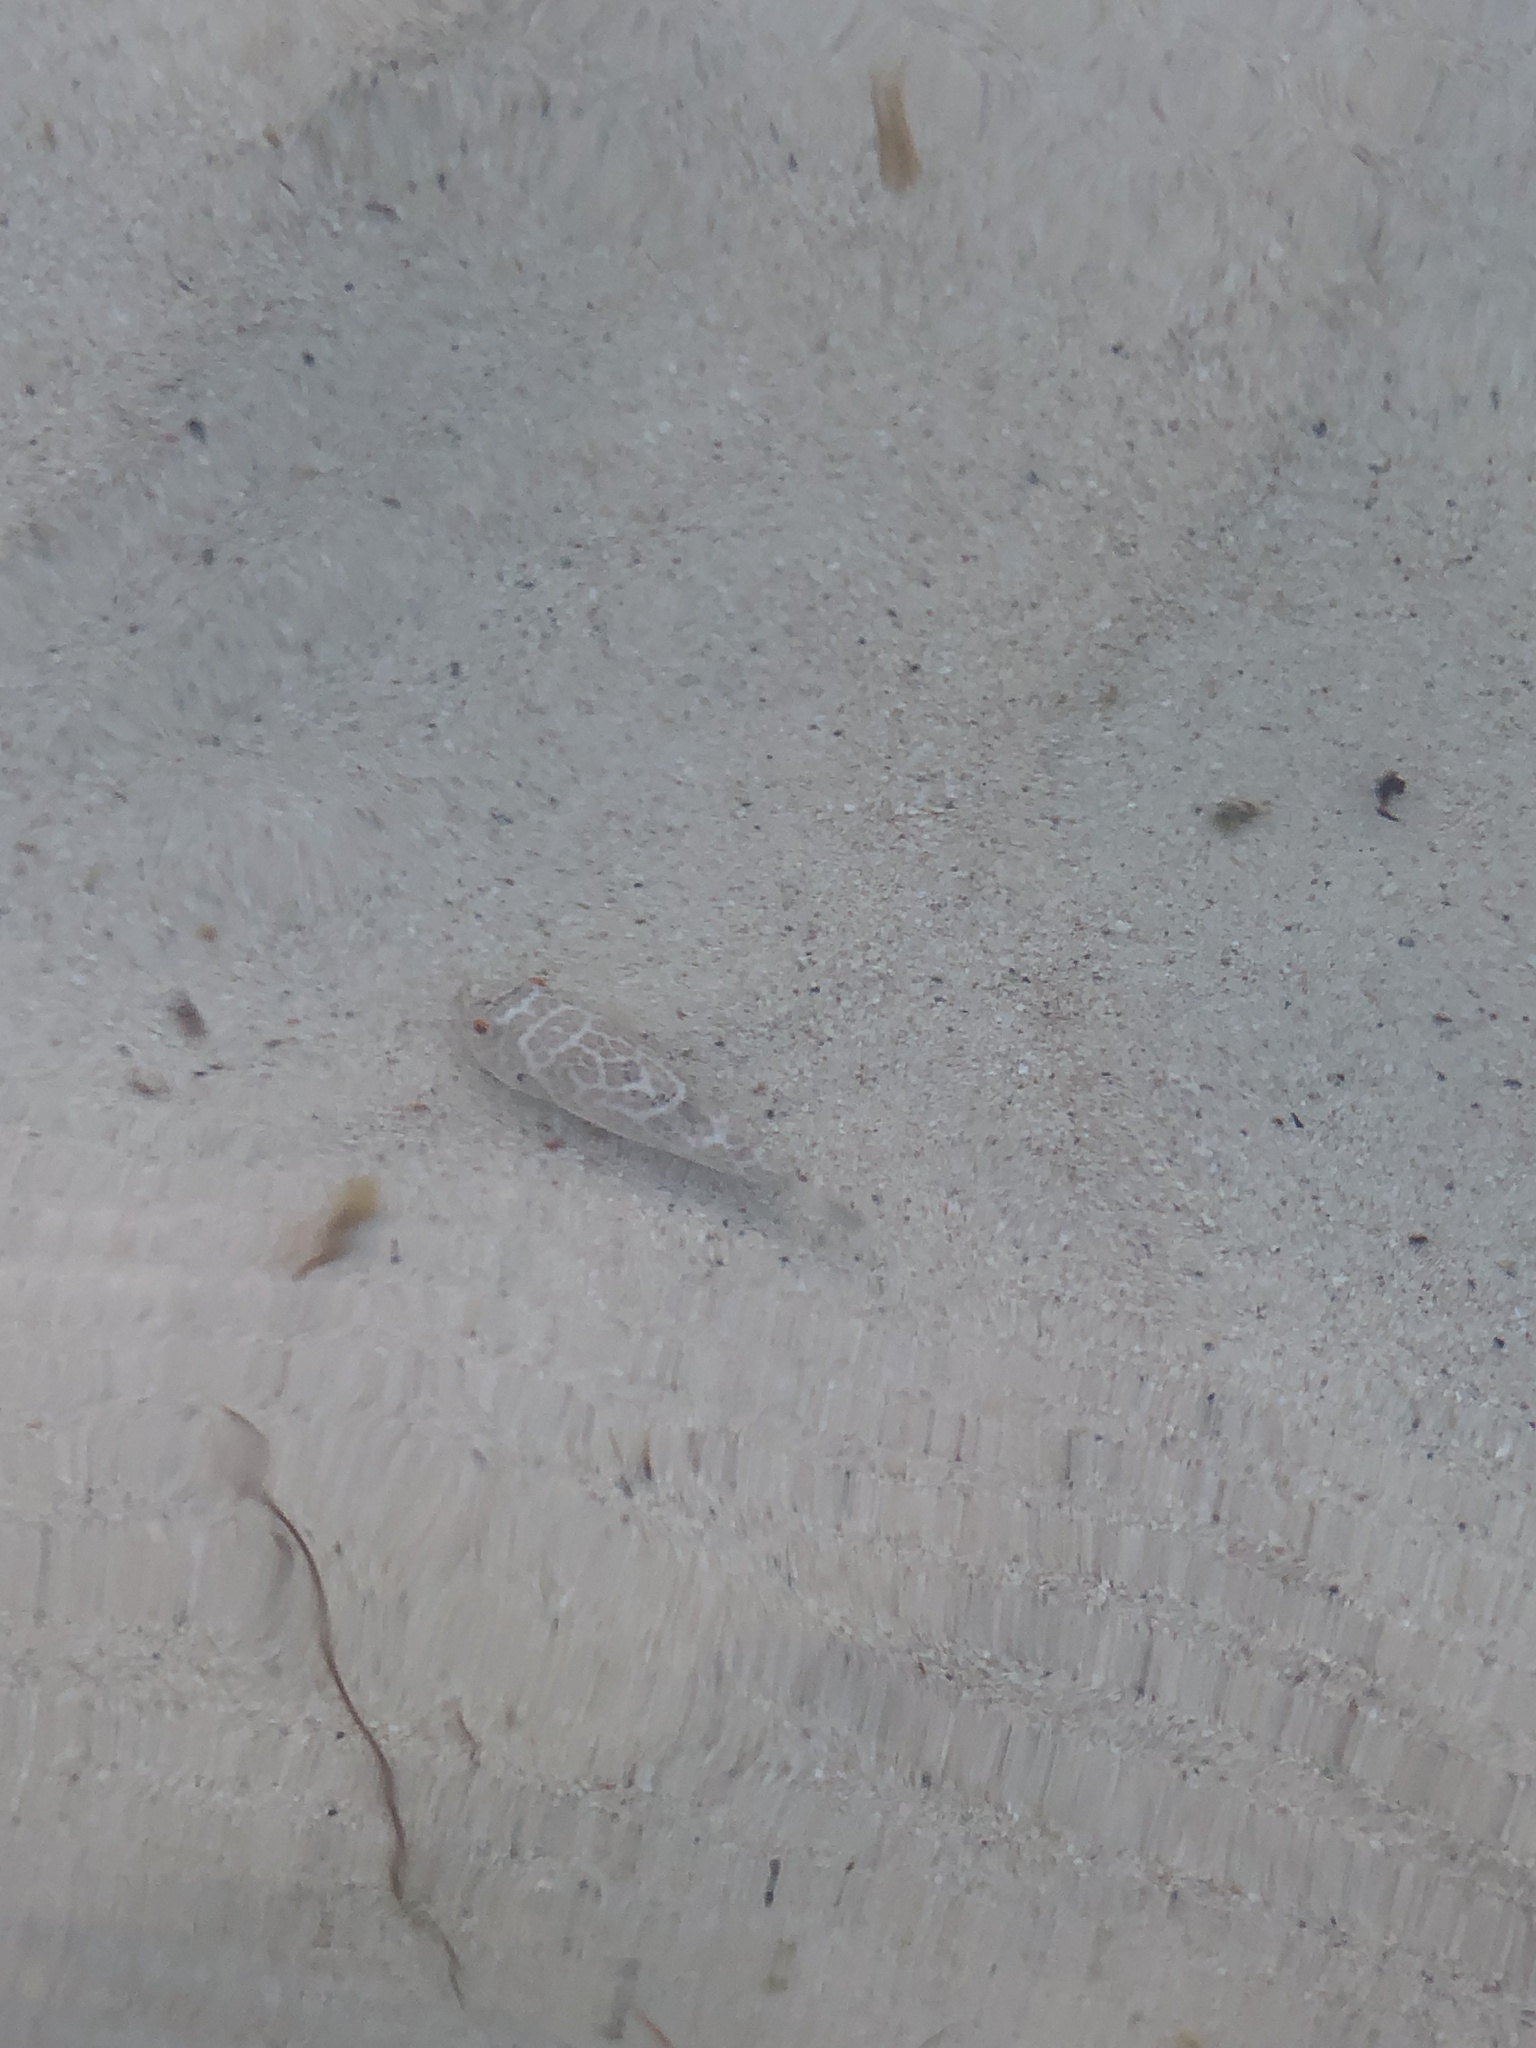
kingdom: Animalia
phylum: Chordata
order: Tetraodontiformes
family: Tetraodontidae
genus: Sphoeroides
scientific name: Sphoeroides testudineus
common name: Checkered puffer
